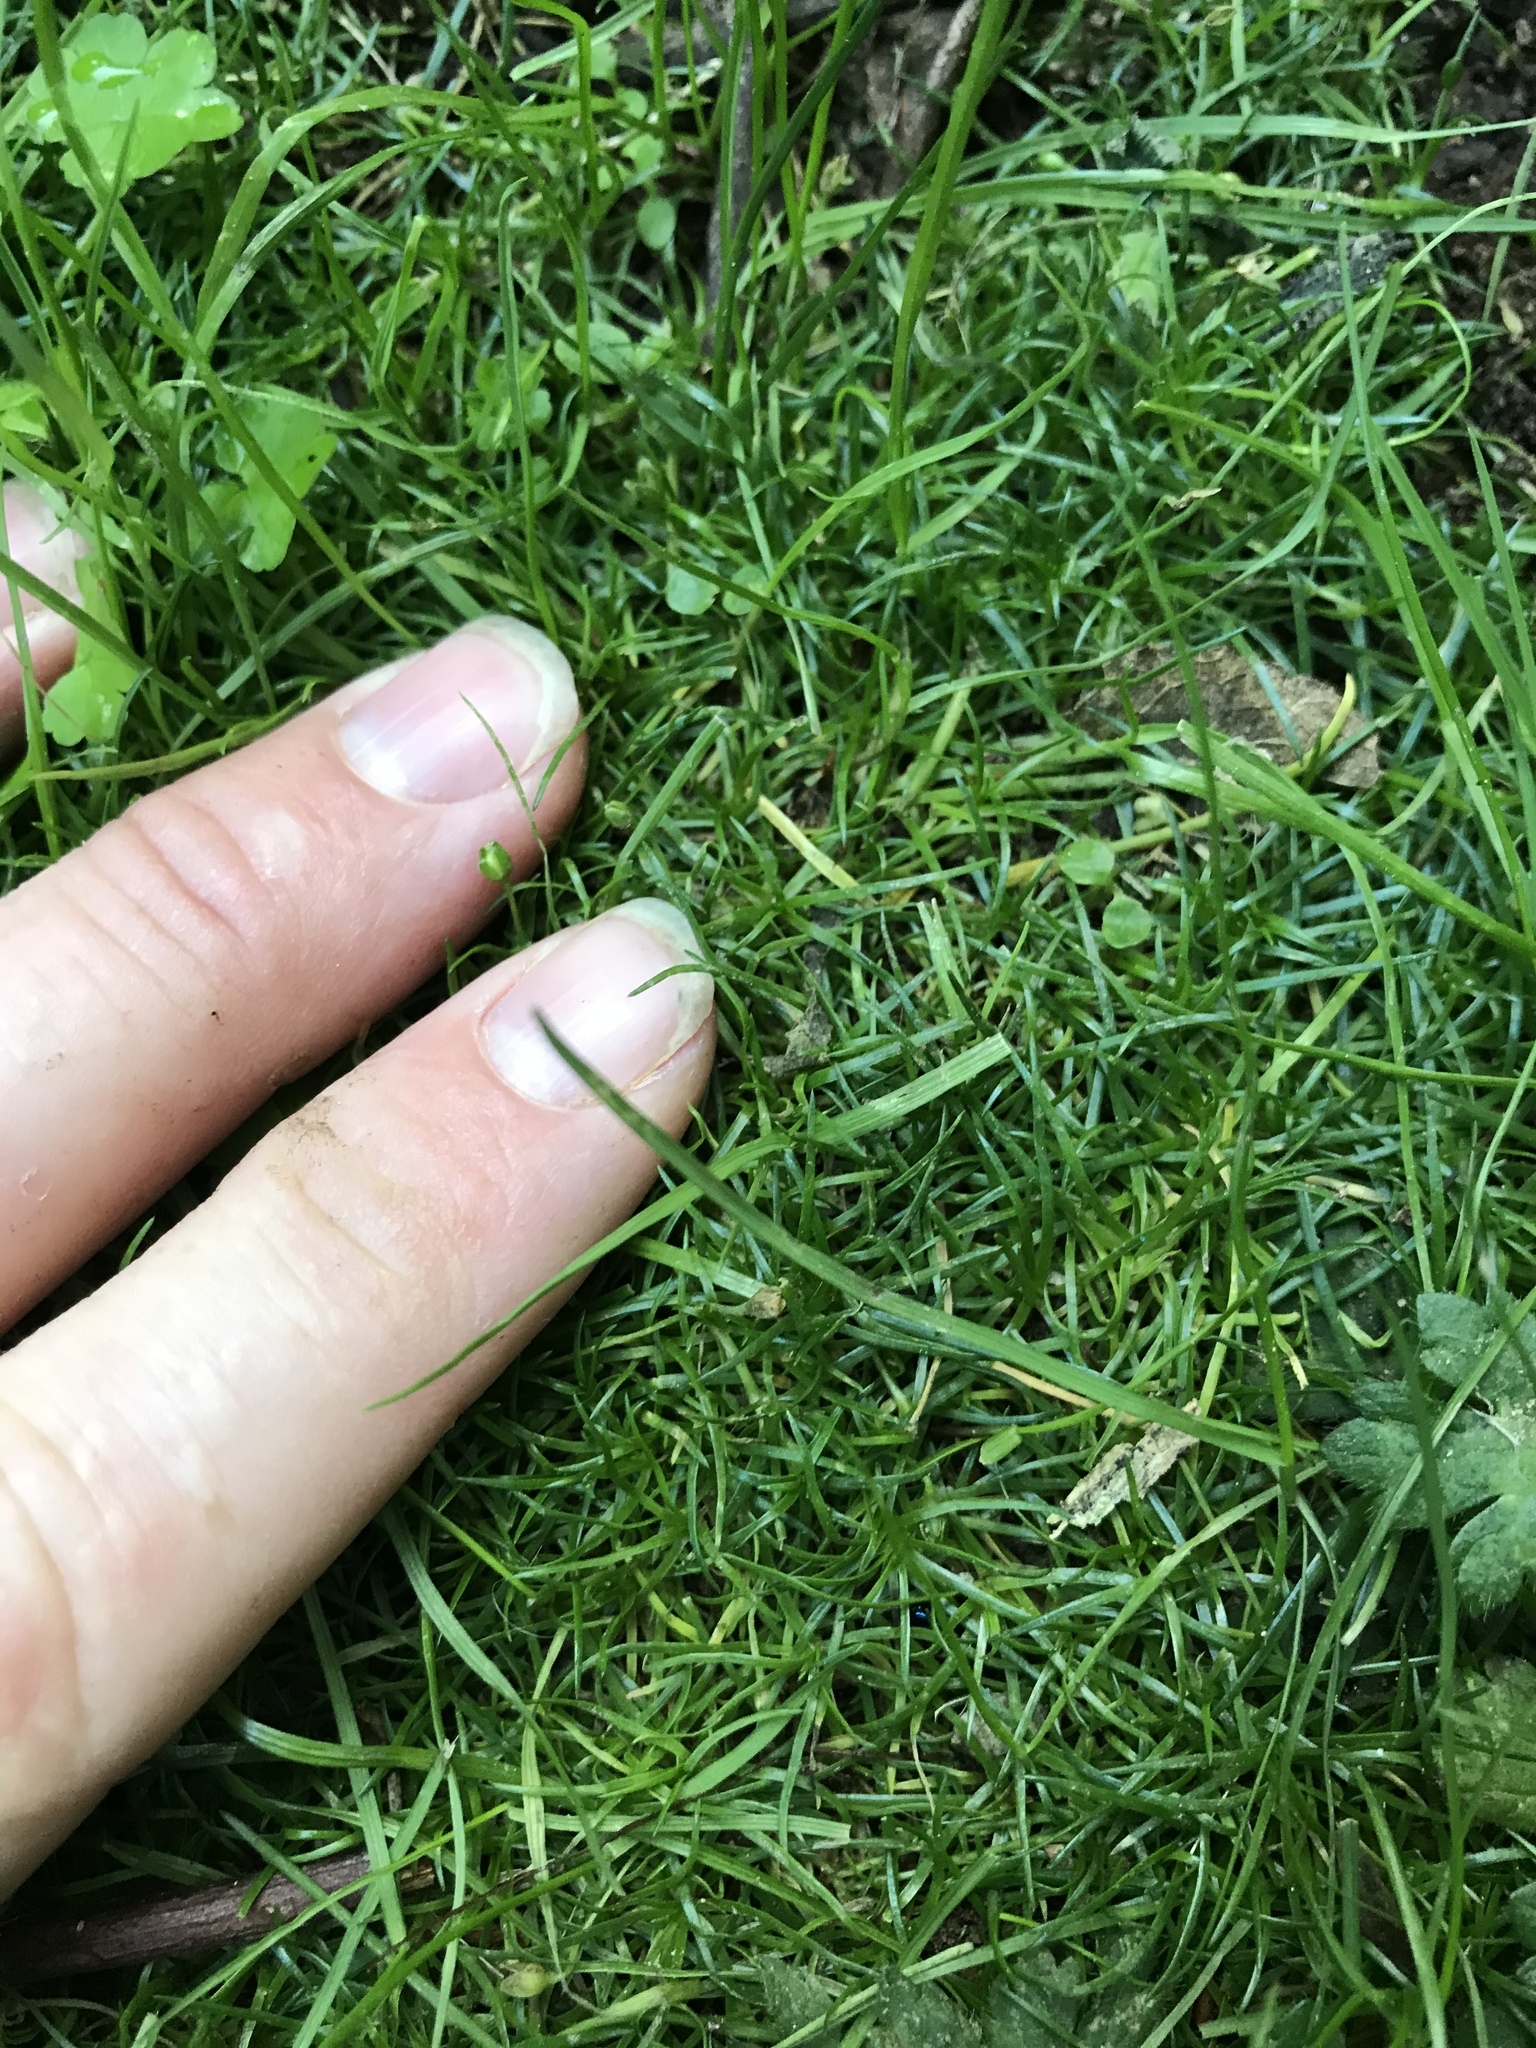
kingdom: Plantae
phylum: Tracheophyta
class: Magnoliopsida
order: Caryophyllales
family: Caryophyllaceae
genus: Sagina
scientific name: Sagina procumbens
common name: Procumbent pearlwort
